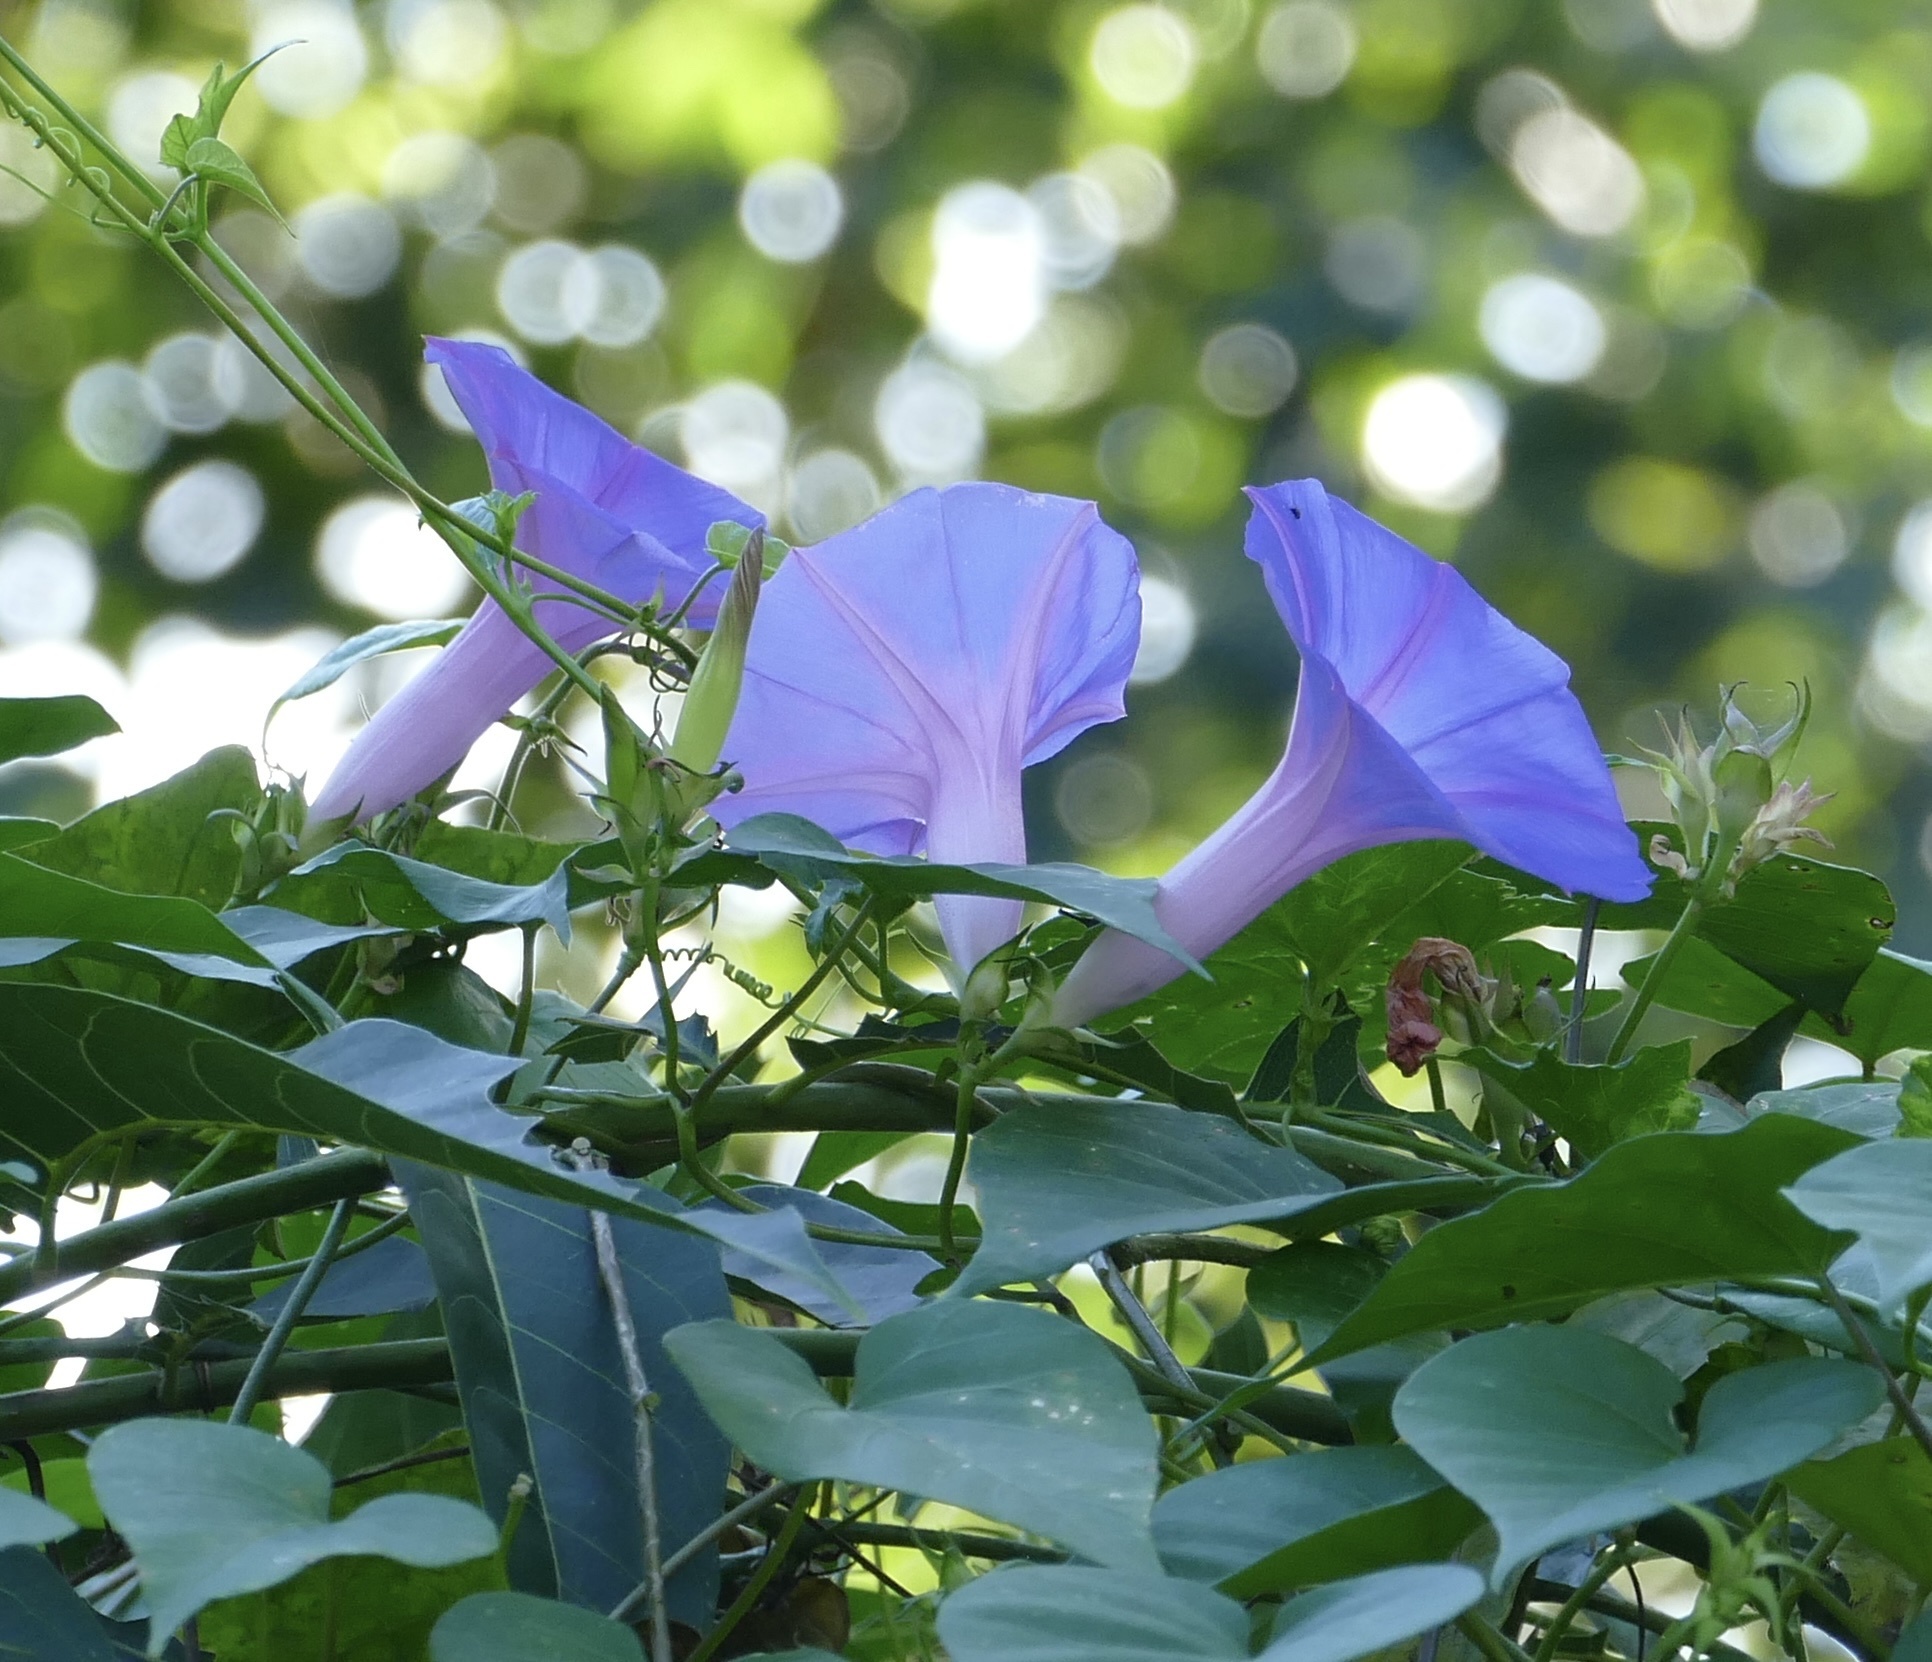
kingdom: Plantae
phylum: Tracheophyta
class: Magnoliopsida
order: Solanales
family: Convolvulaceae
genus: Ipomoea
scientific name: Ipomoea indica
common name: Blue dawnflower
